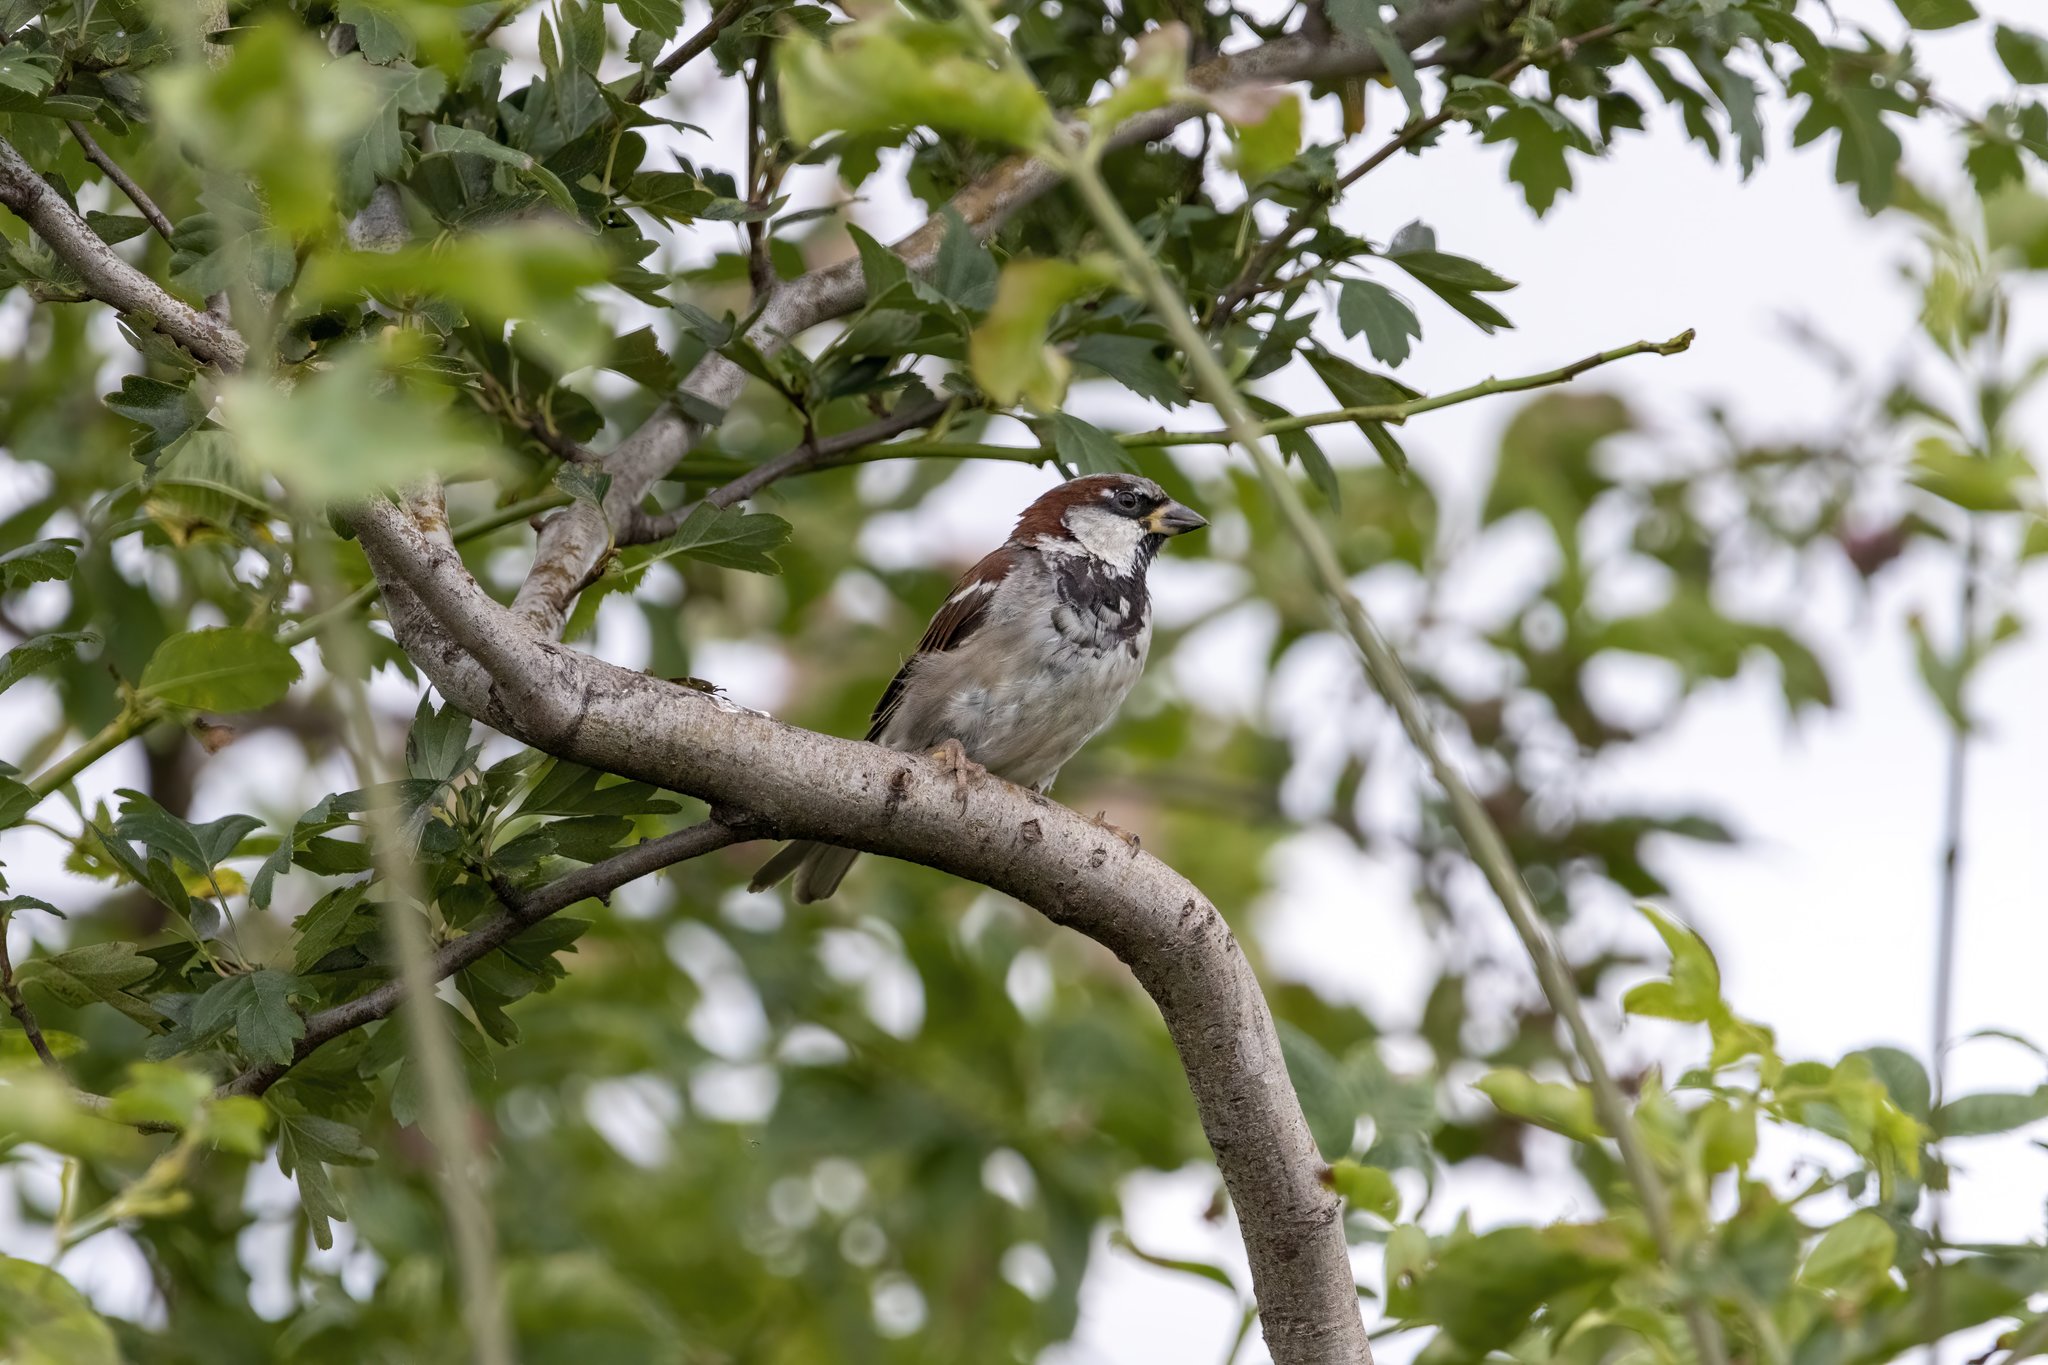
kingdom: Animalia
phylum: Chordata
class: Aves
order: Passeriformes
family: Passeridae
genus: Passer
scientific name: Passer domesticus
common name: House sparrow
